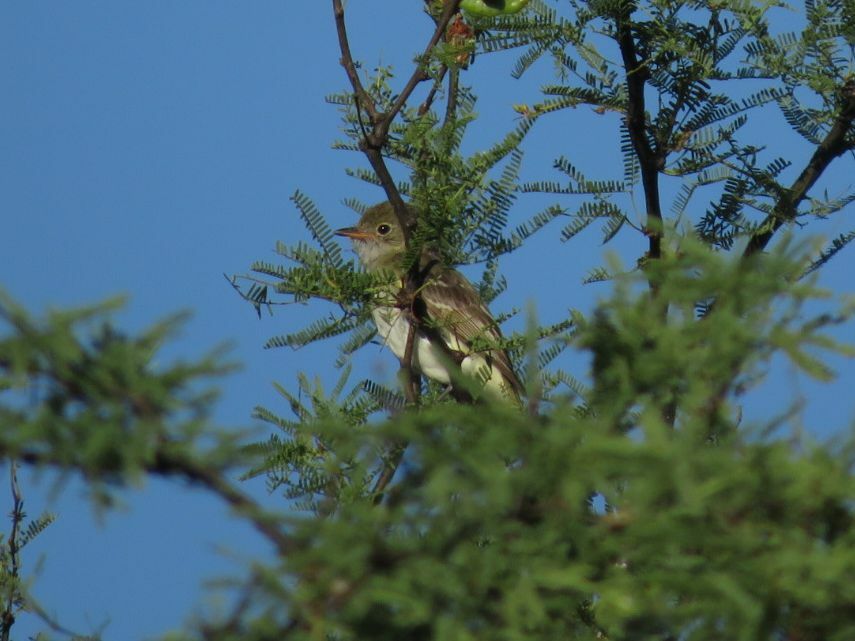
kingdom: Animalia
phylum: Chordata
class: Aves
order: Passeriformes
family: Tyrannidae
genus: Elaenia
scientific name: Elaenia parvirostris
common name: Small-billed elaenia
